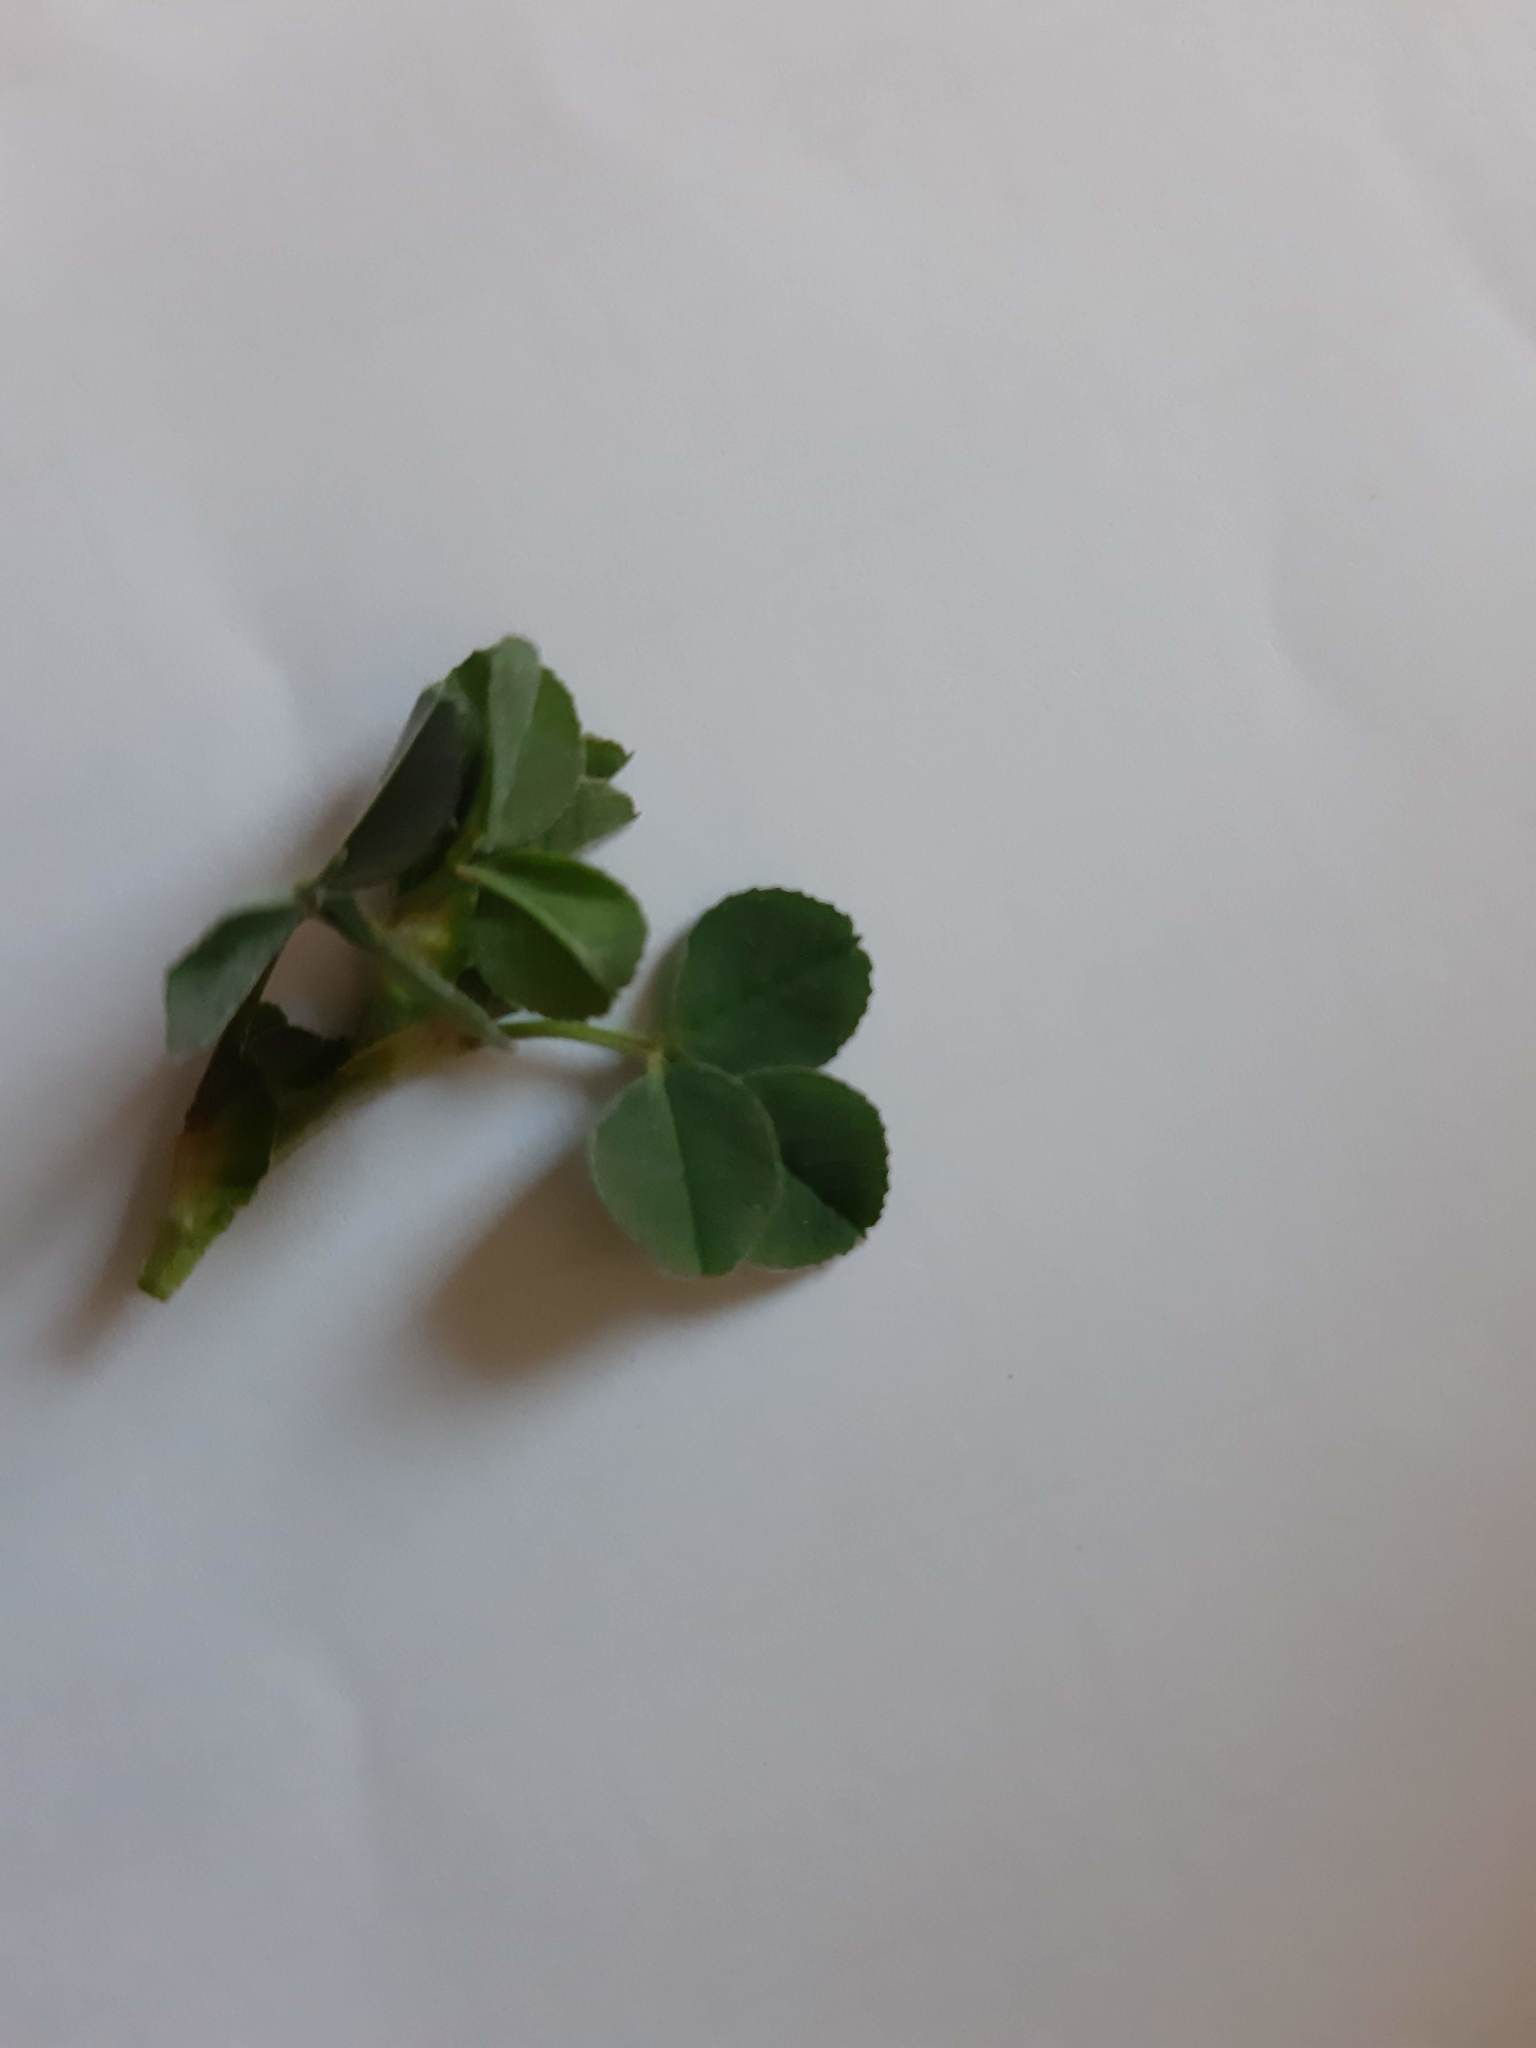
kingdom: Plantae
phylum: Tracheophyta
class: Magnoliopsida
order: Fabales
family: Fabaceae
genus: Medicago
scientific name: Medicago lupulina
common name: Black medick
